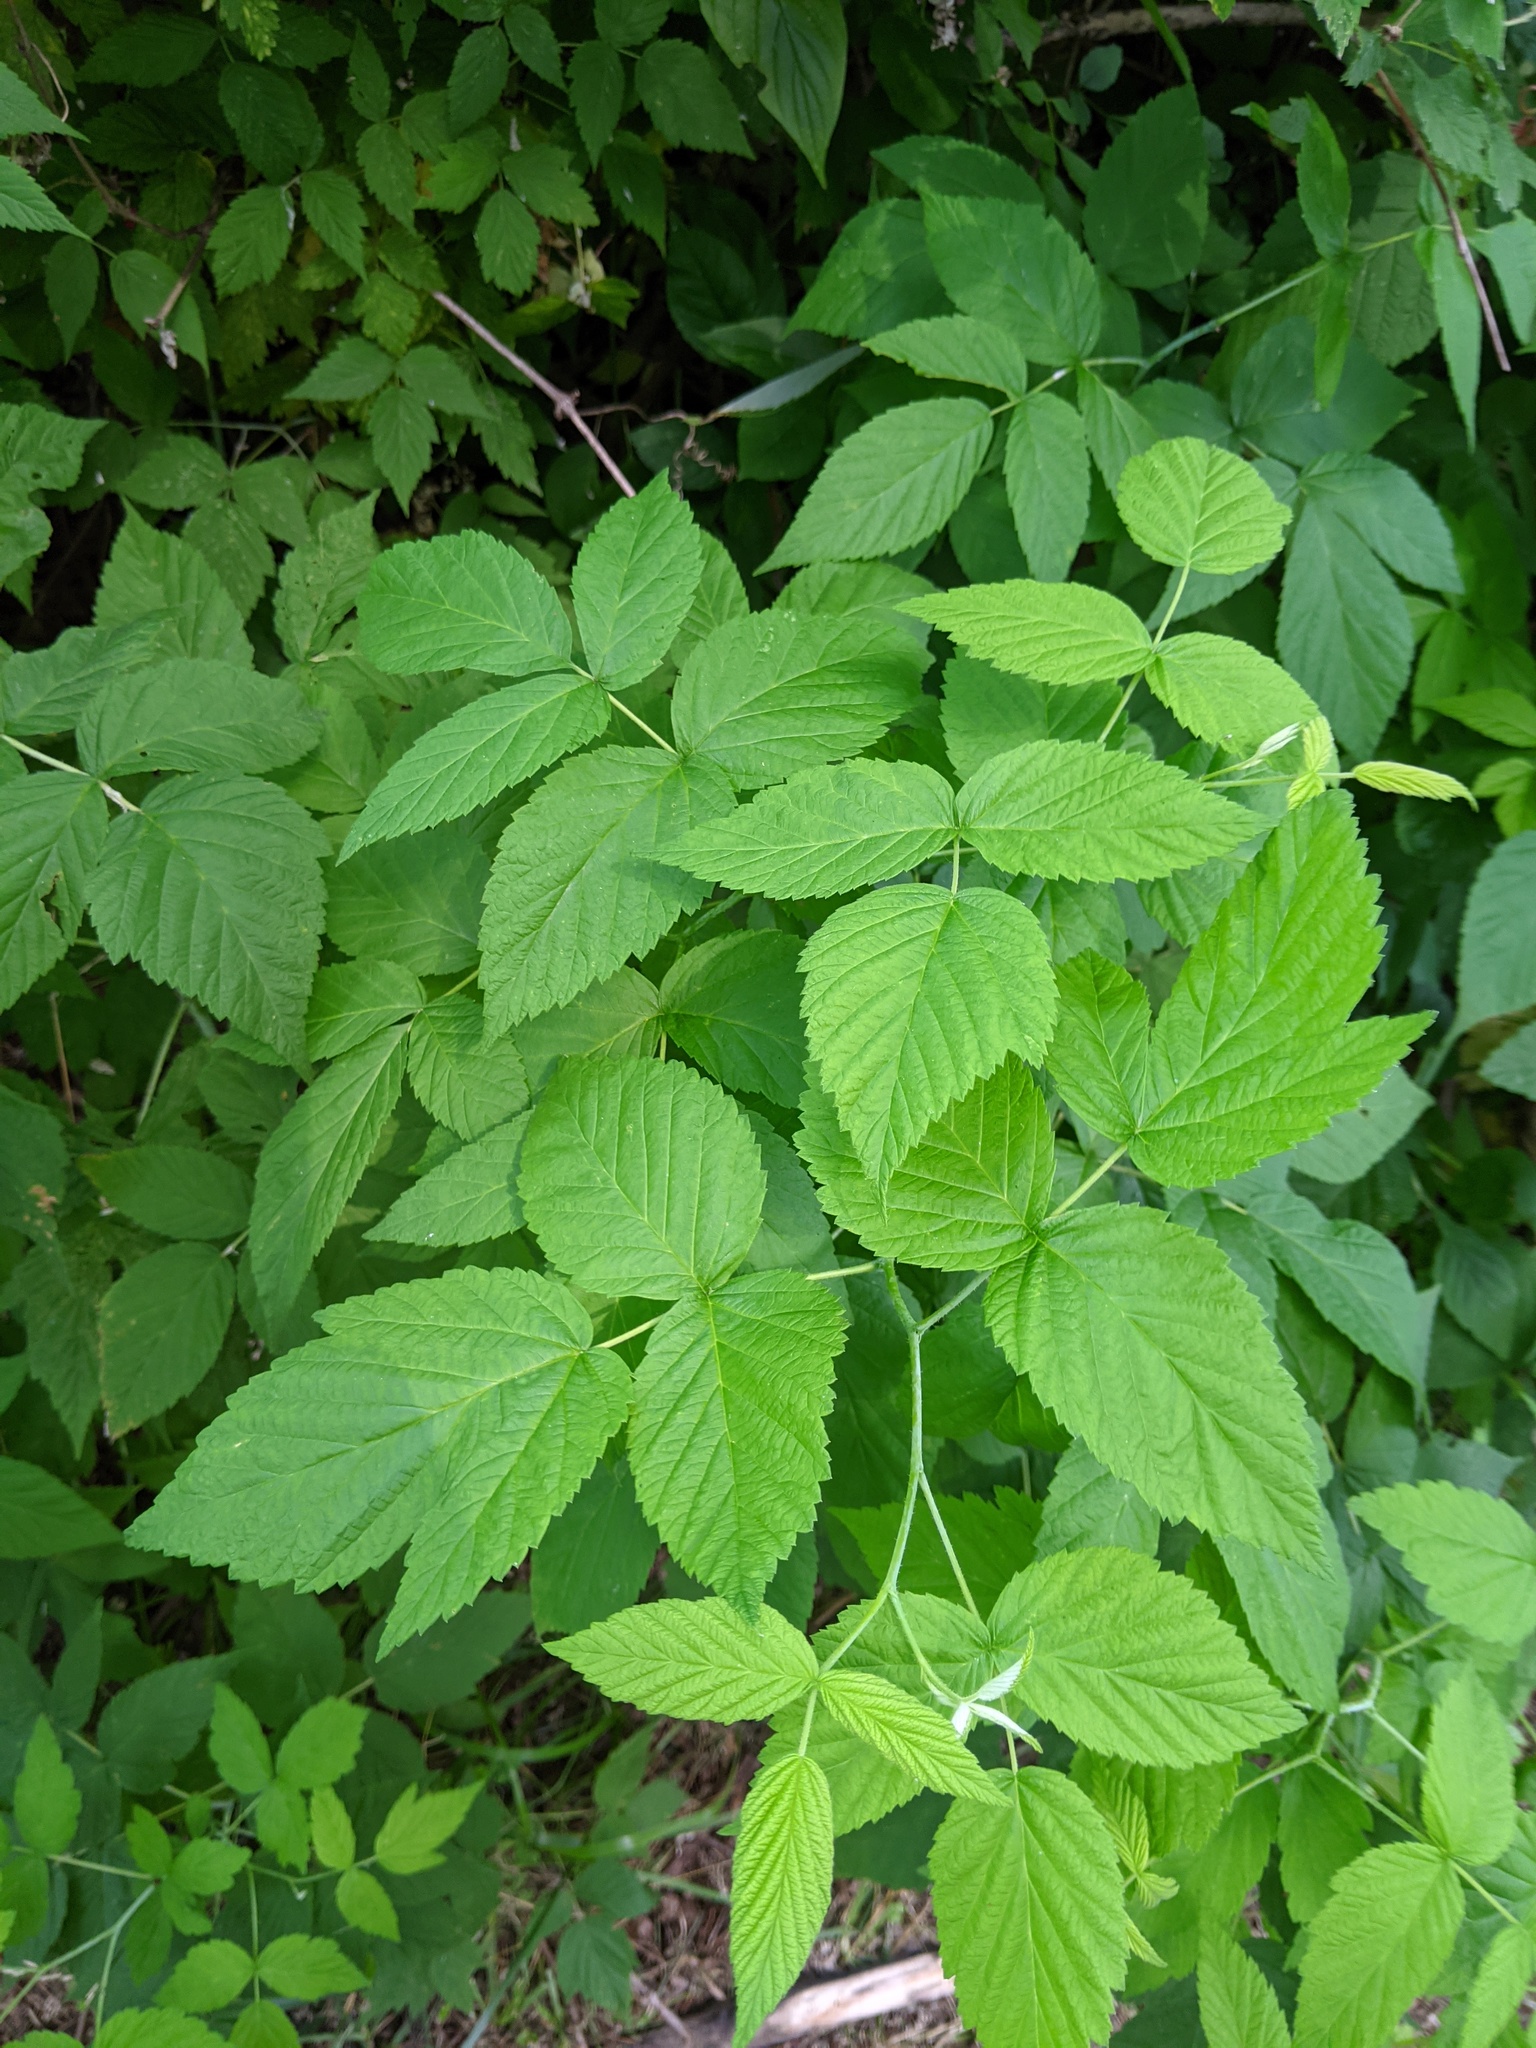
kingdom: Plantae
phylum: Tracheophyta
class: Magnoliopsida
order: Rosales
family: Rosaceae
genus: Rubus
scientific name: Rubus idaeus
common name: Raspberry
